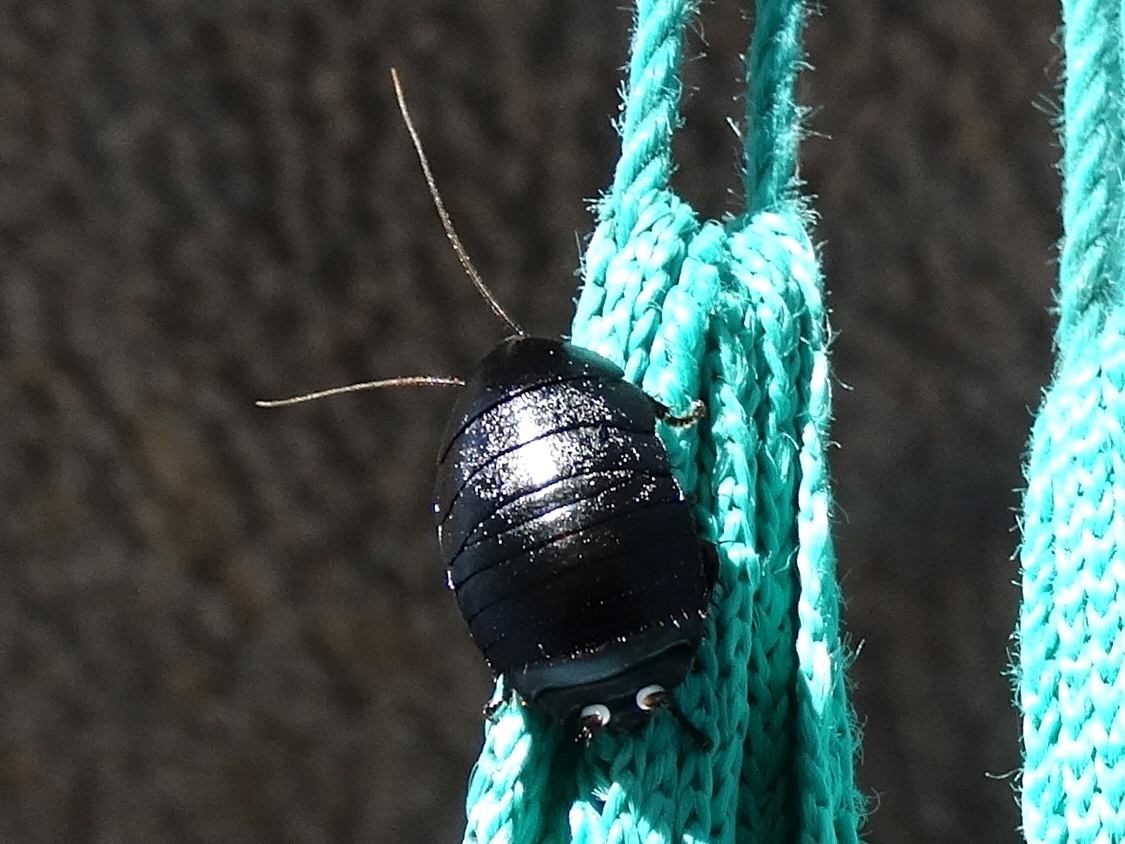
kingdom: Animalia
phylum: Arthropoda
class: Insecta
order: Blattodea
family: Ectobiidae
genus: Nyctibora
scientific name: Nyctibora tetrasticta
